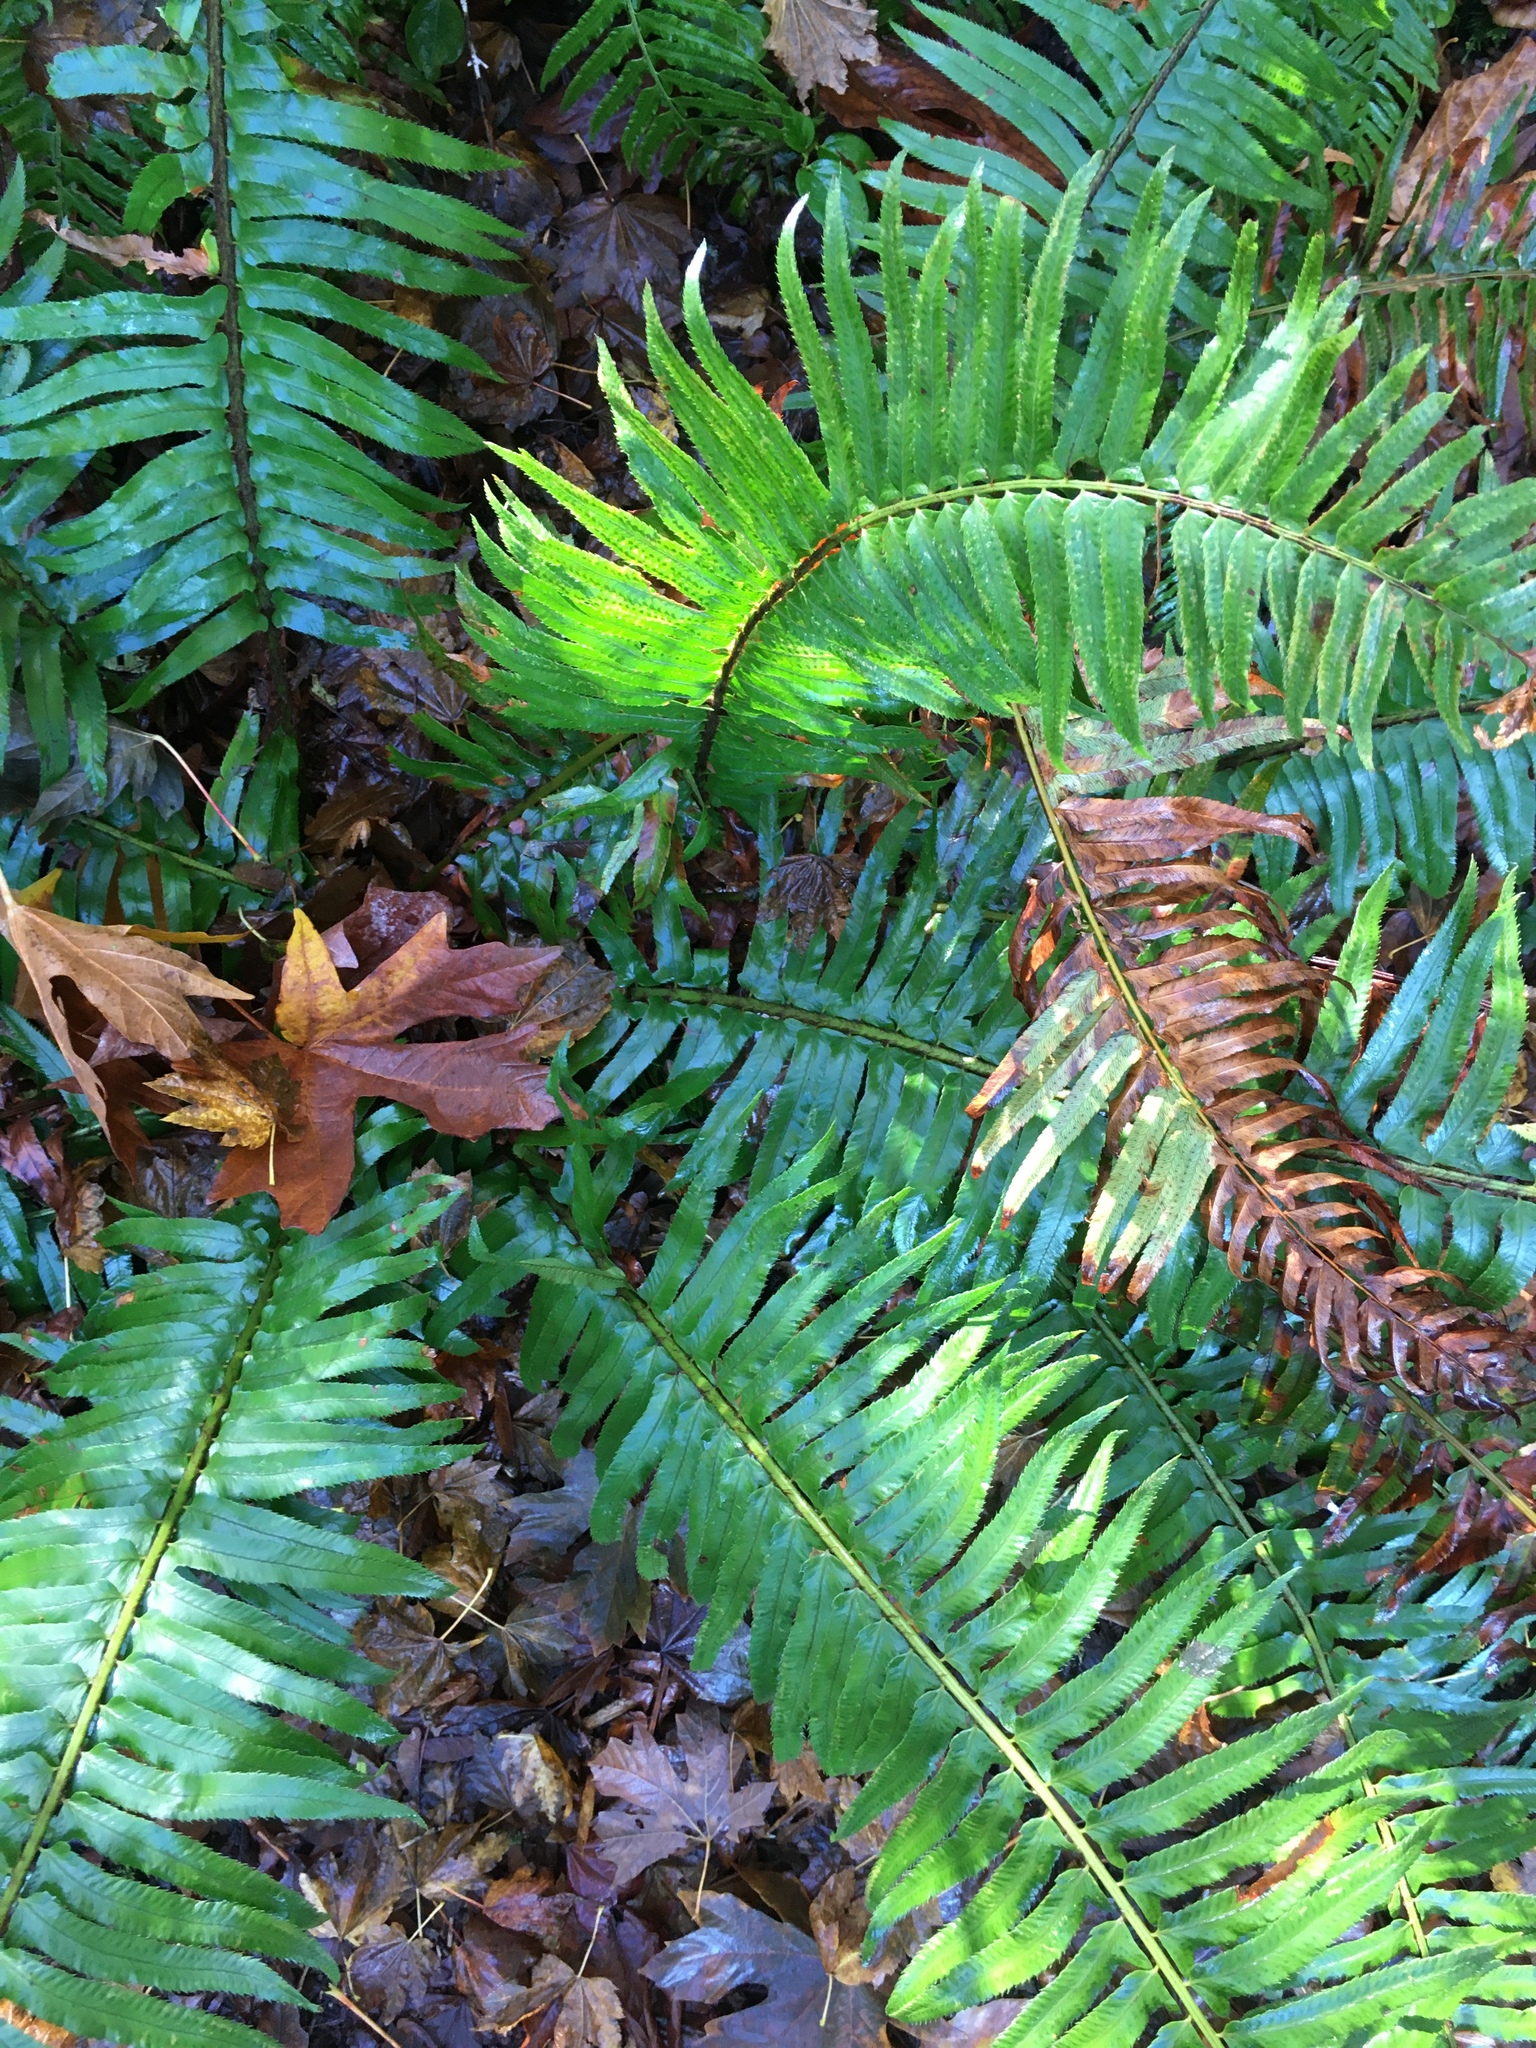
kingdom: Plantae
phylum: Tracheophyta
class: Polypodiopsida
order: Polypodiales
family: Dryopteridaceae
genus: Polystichum
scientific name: Polystichum munitum
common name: Western sword-fern
